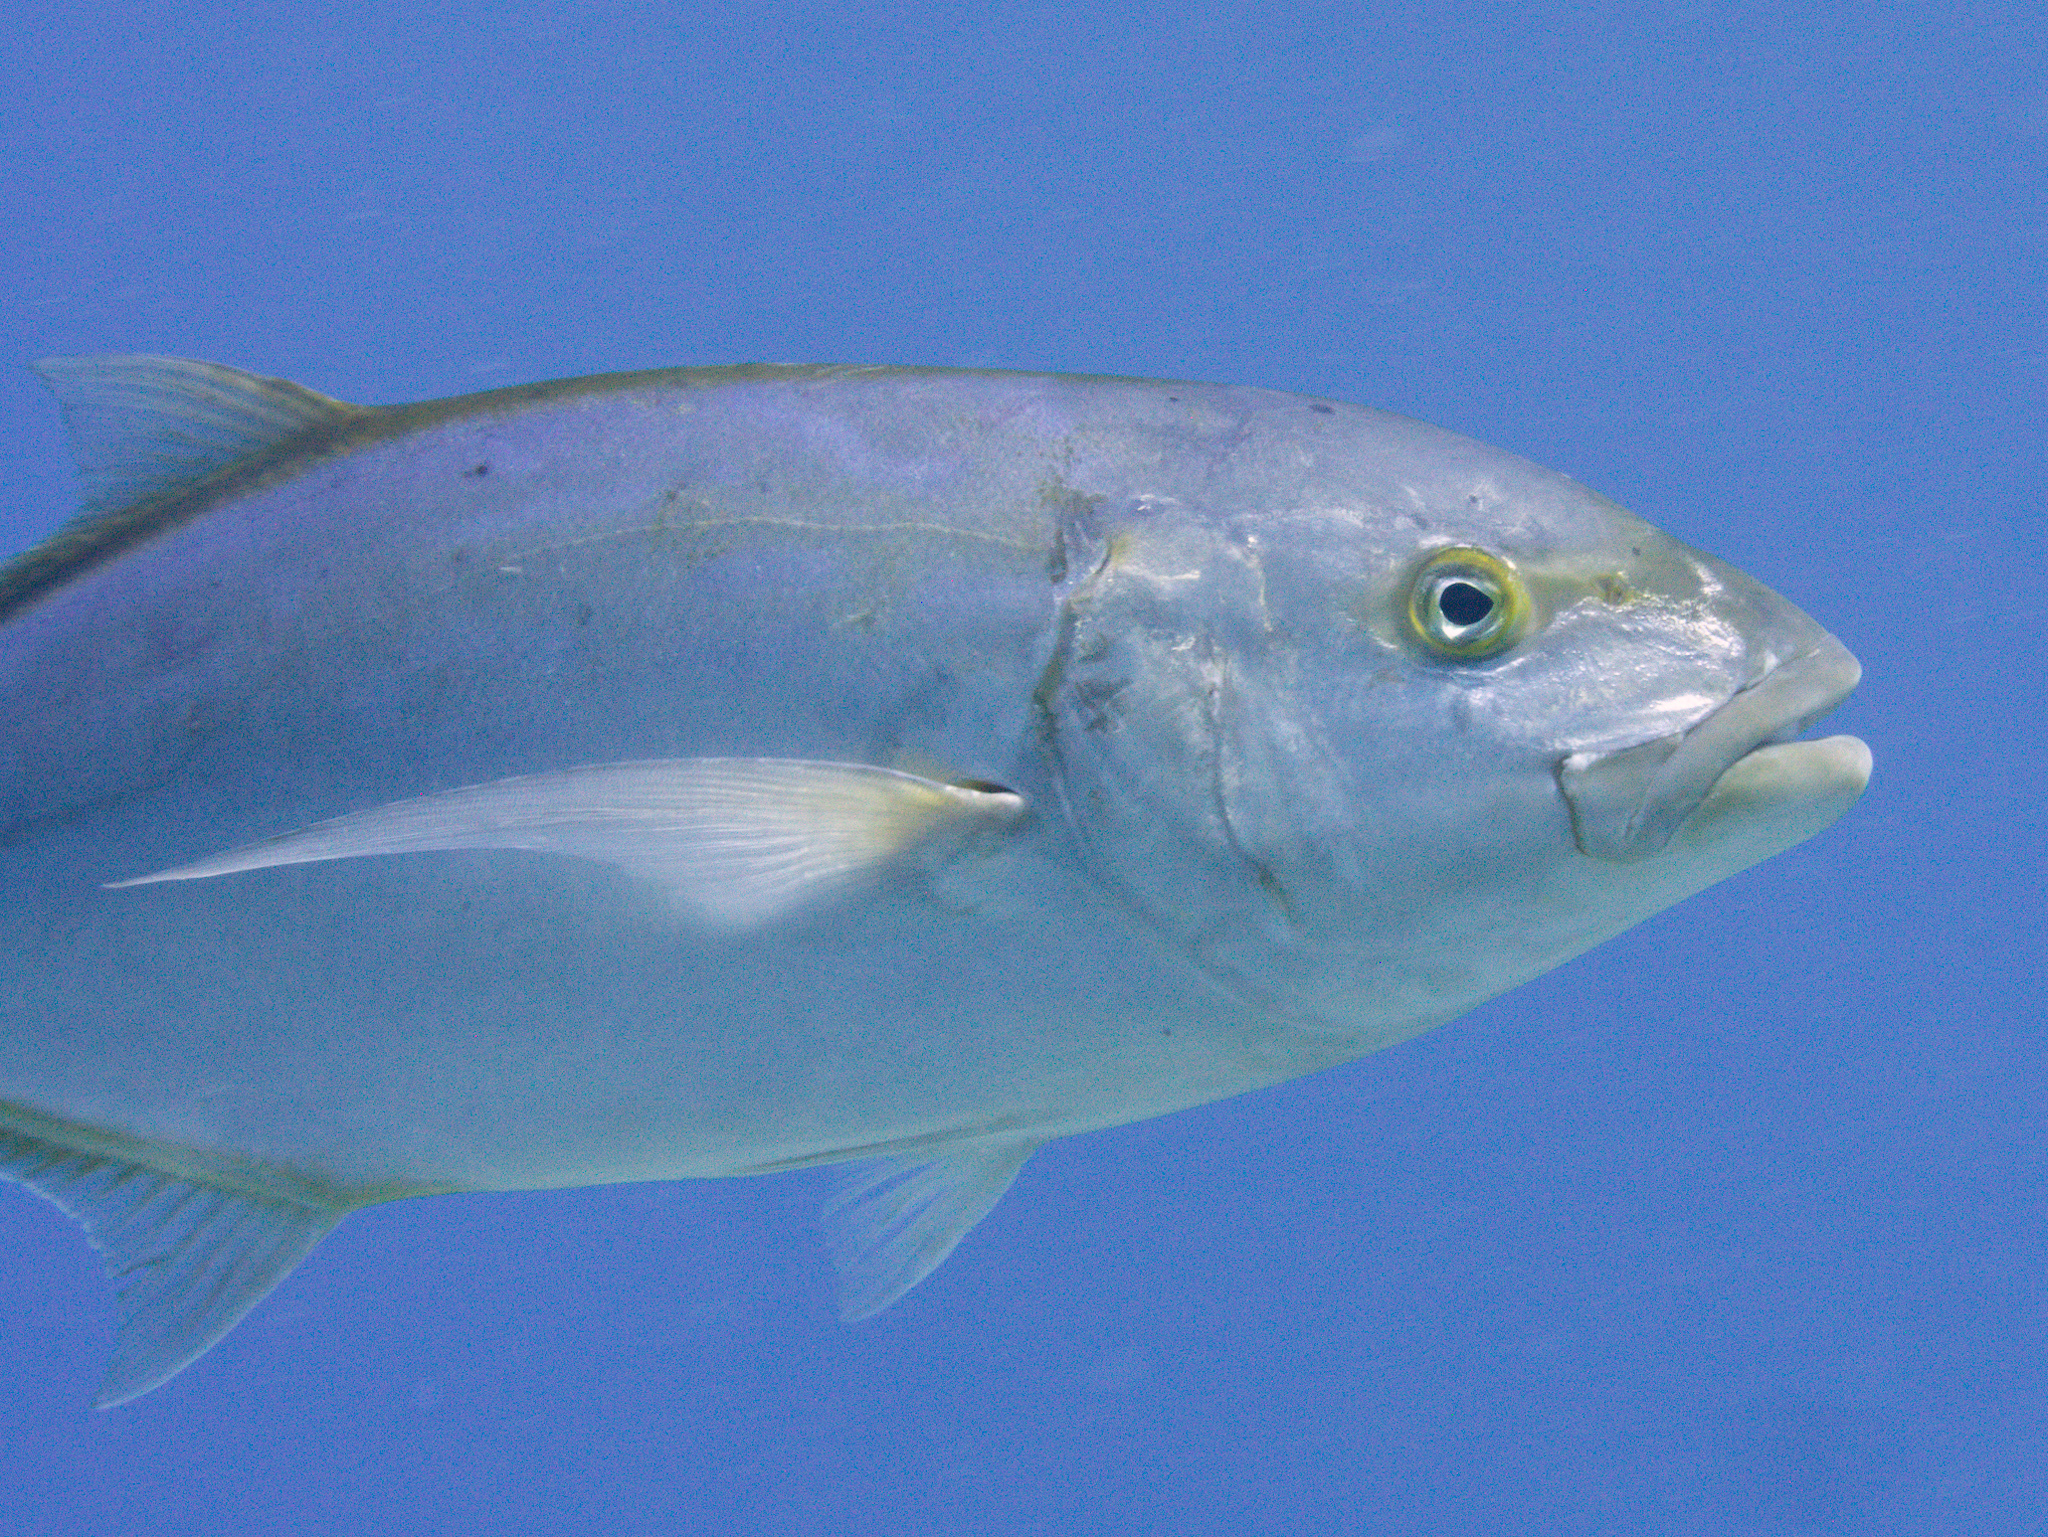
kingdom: Animalia
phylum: Chordata
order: Perciformes
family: Carangidae
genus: Carangoides
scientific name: Carangoides bartholomaei
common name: Yellow jack
